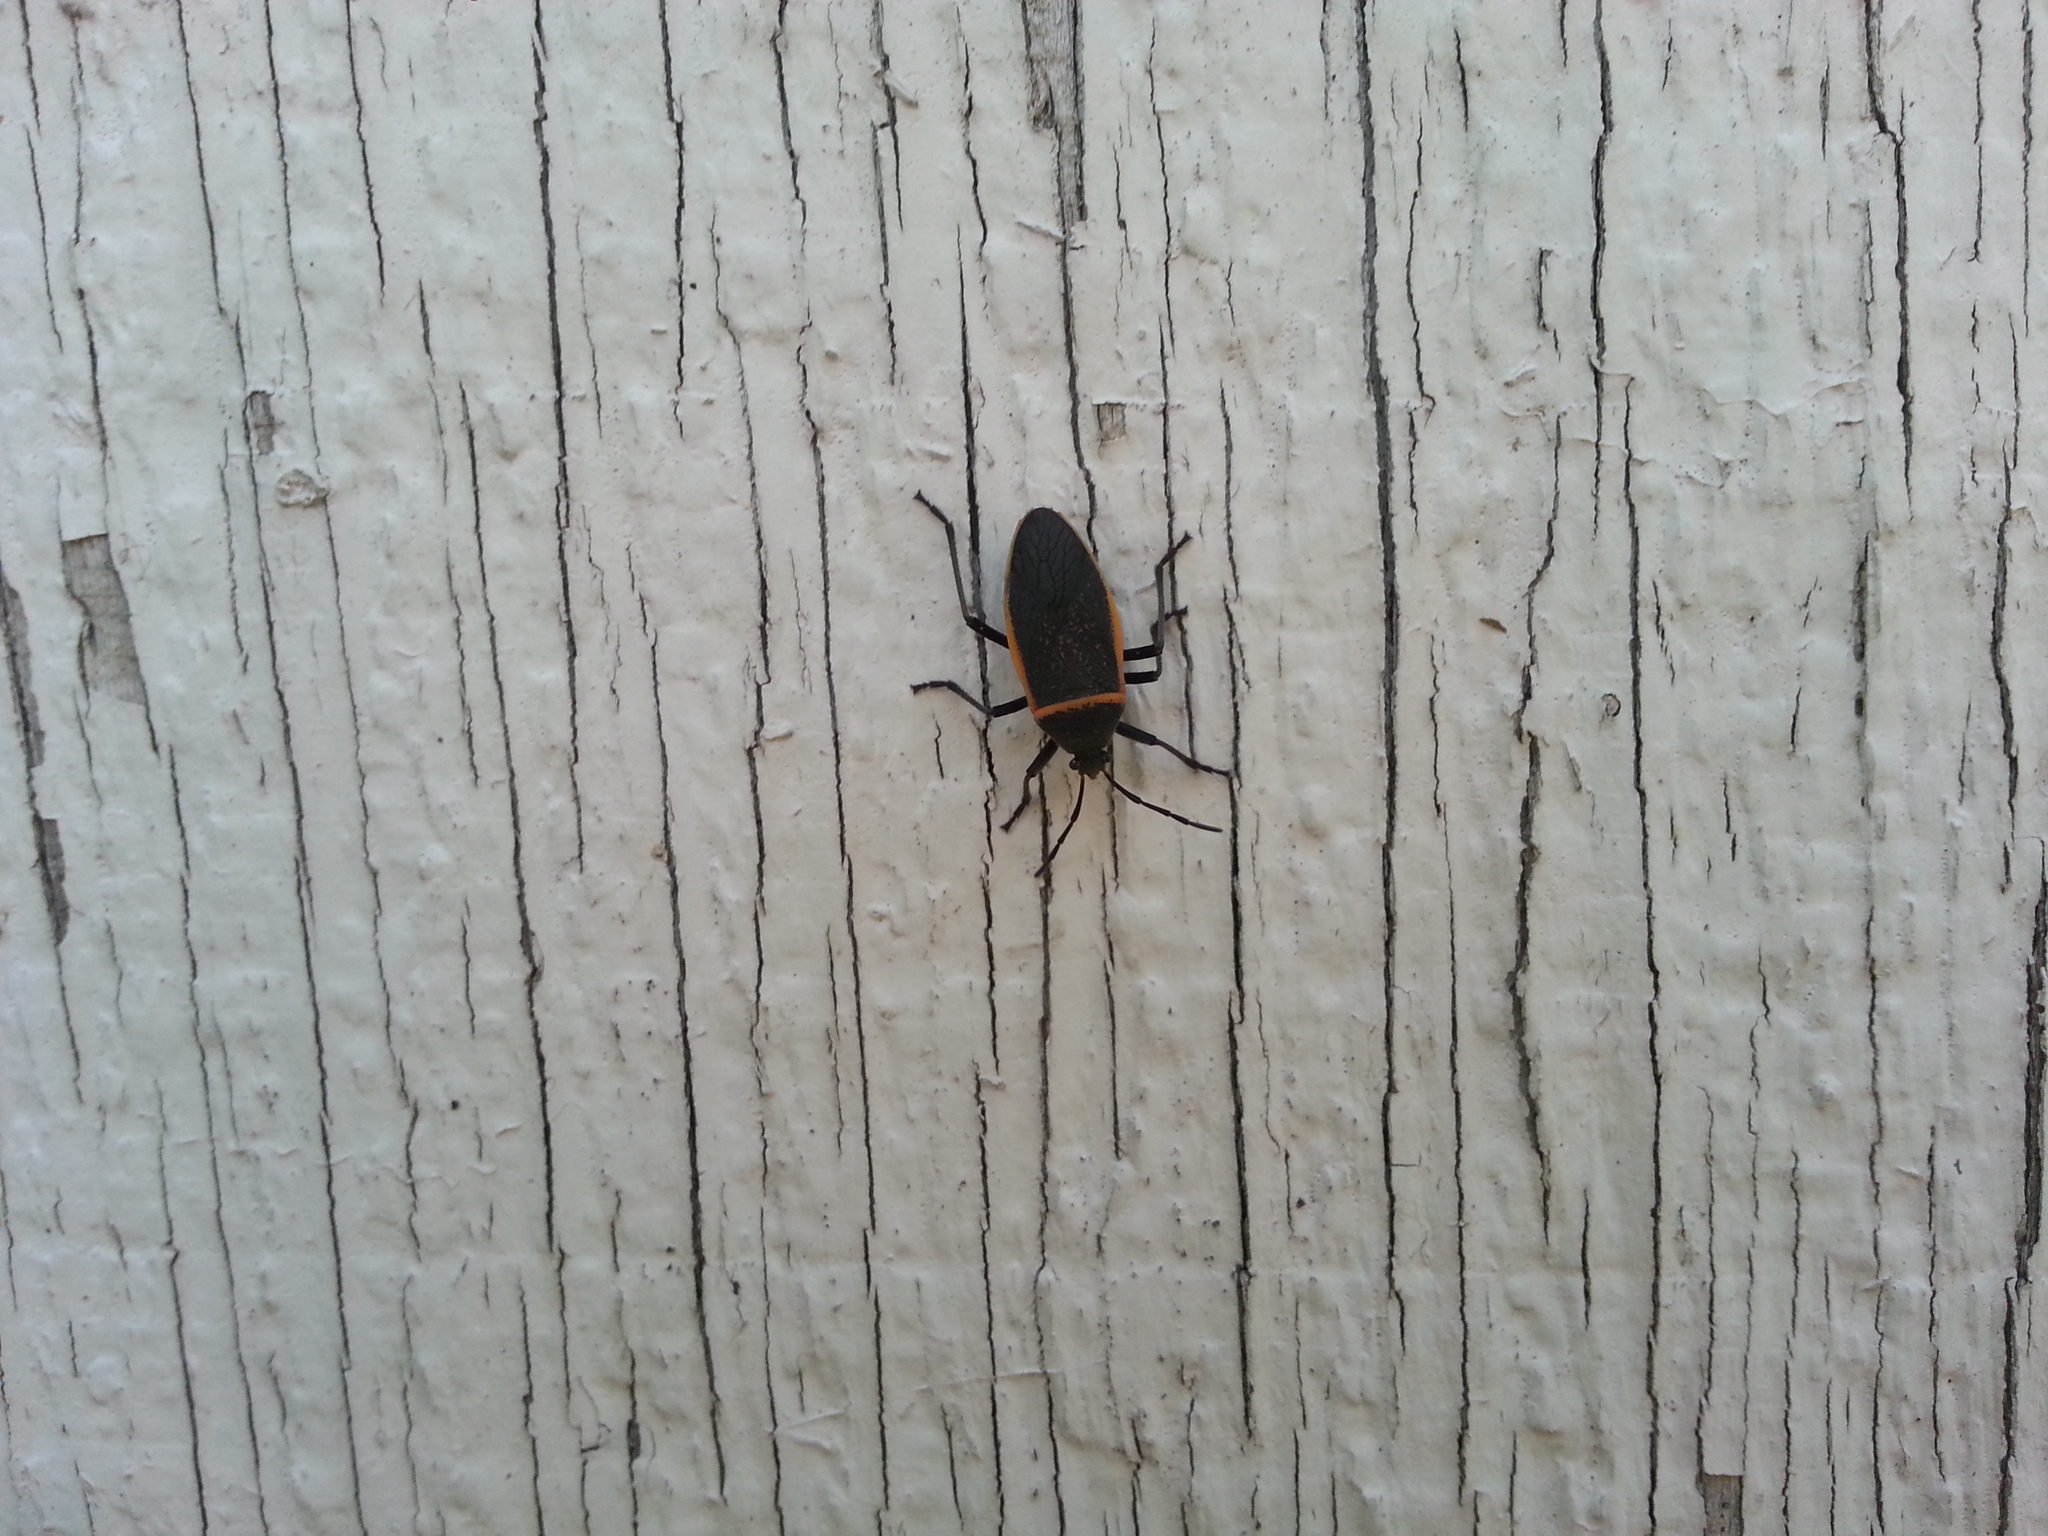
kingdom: Animalia
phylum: Arthropoda
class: Insecta
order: Hemiptera
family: Largidae
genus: Largus
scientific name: Largus californicus
